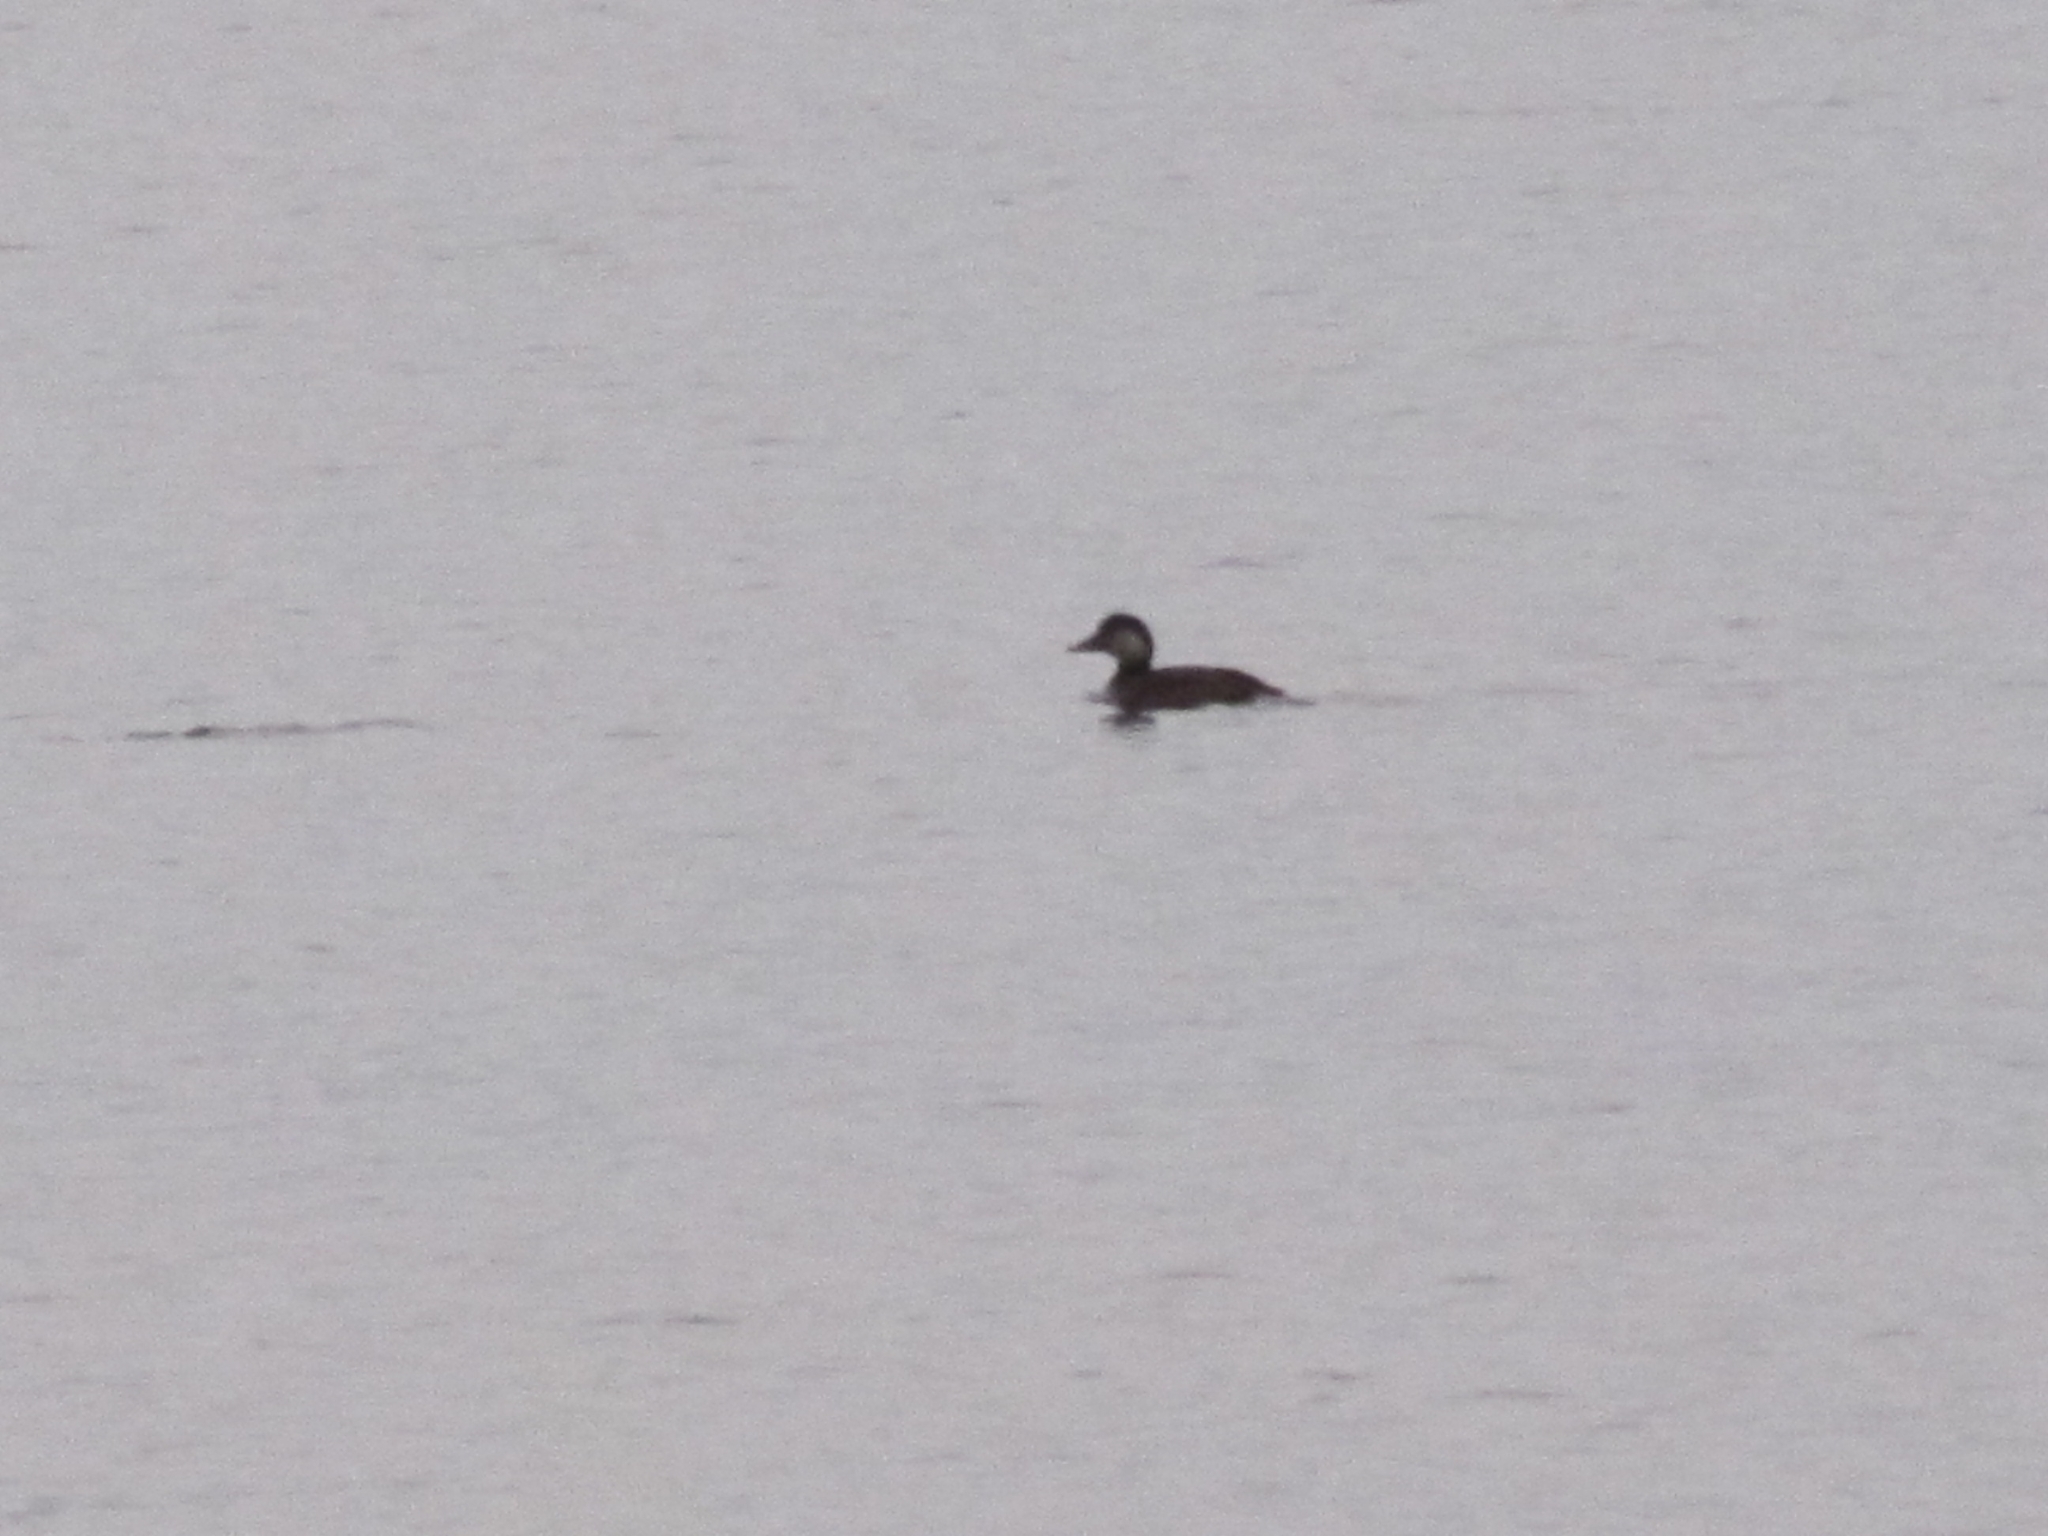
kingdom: Animalia
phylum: Chordata
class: Aves
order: Anseriformes
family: Anatidae
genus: Melanitta
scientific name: Melanitta americana
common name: Black scoter
